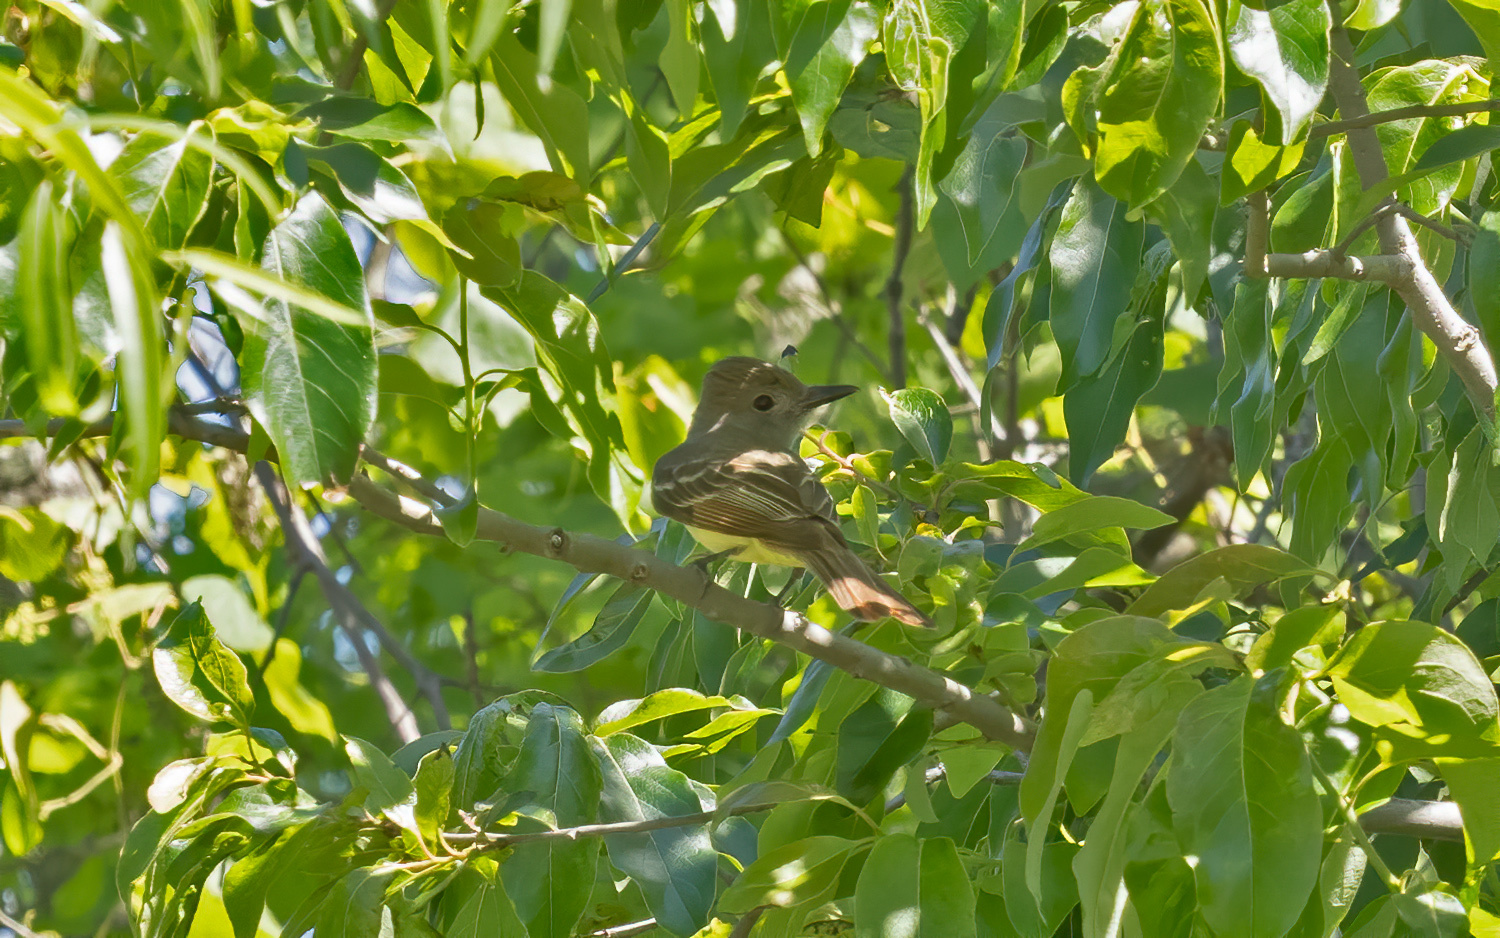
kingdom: Animalia
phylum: Chordata
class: Aves
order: Passeriformes
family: Tyrannidae
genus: Myiarchus
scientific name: Myiarchus crinitus
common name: Great crested flycatcher
